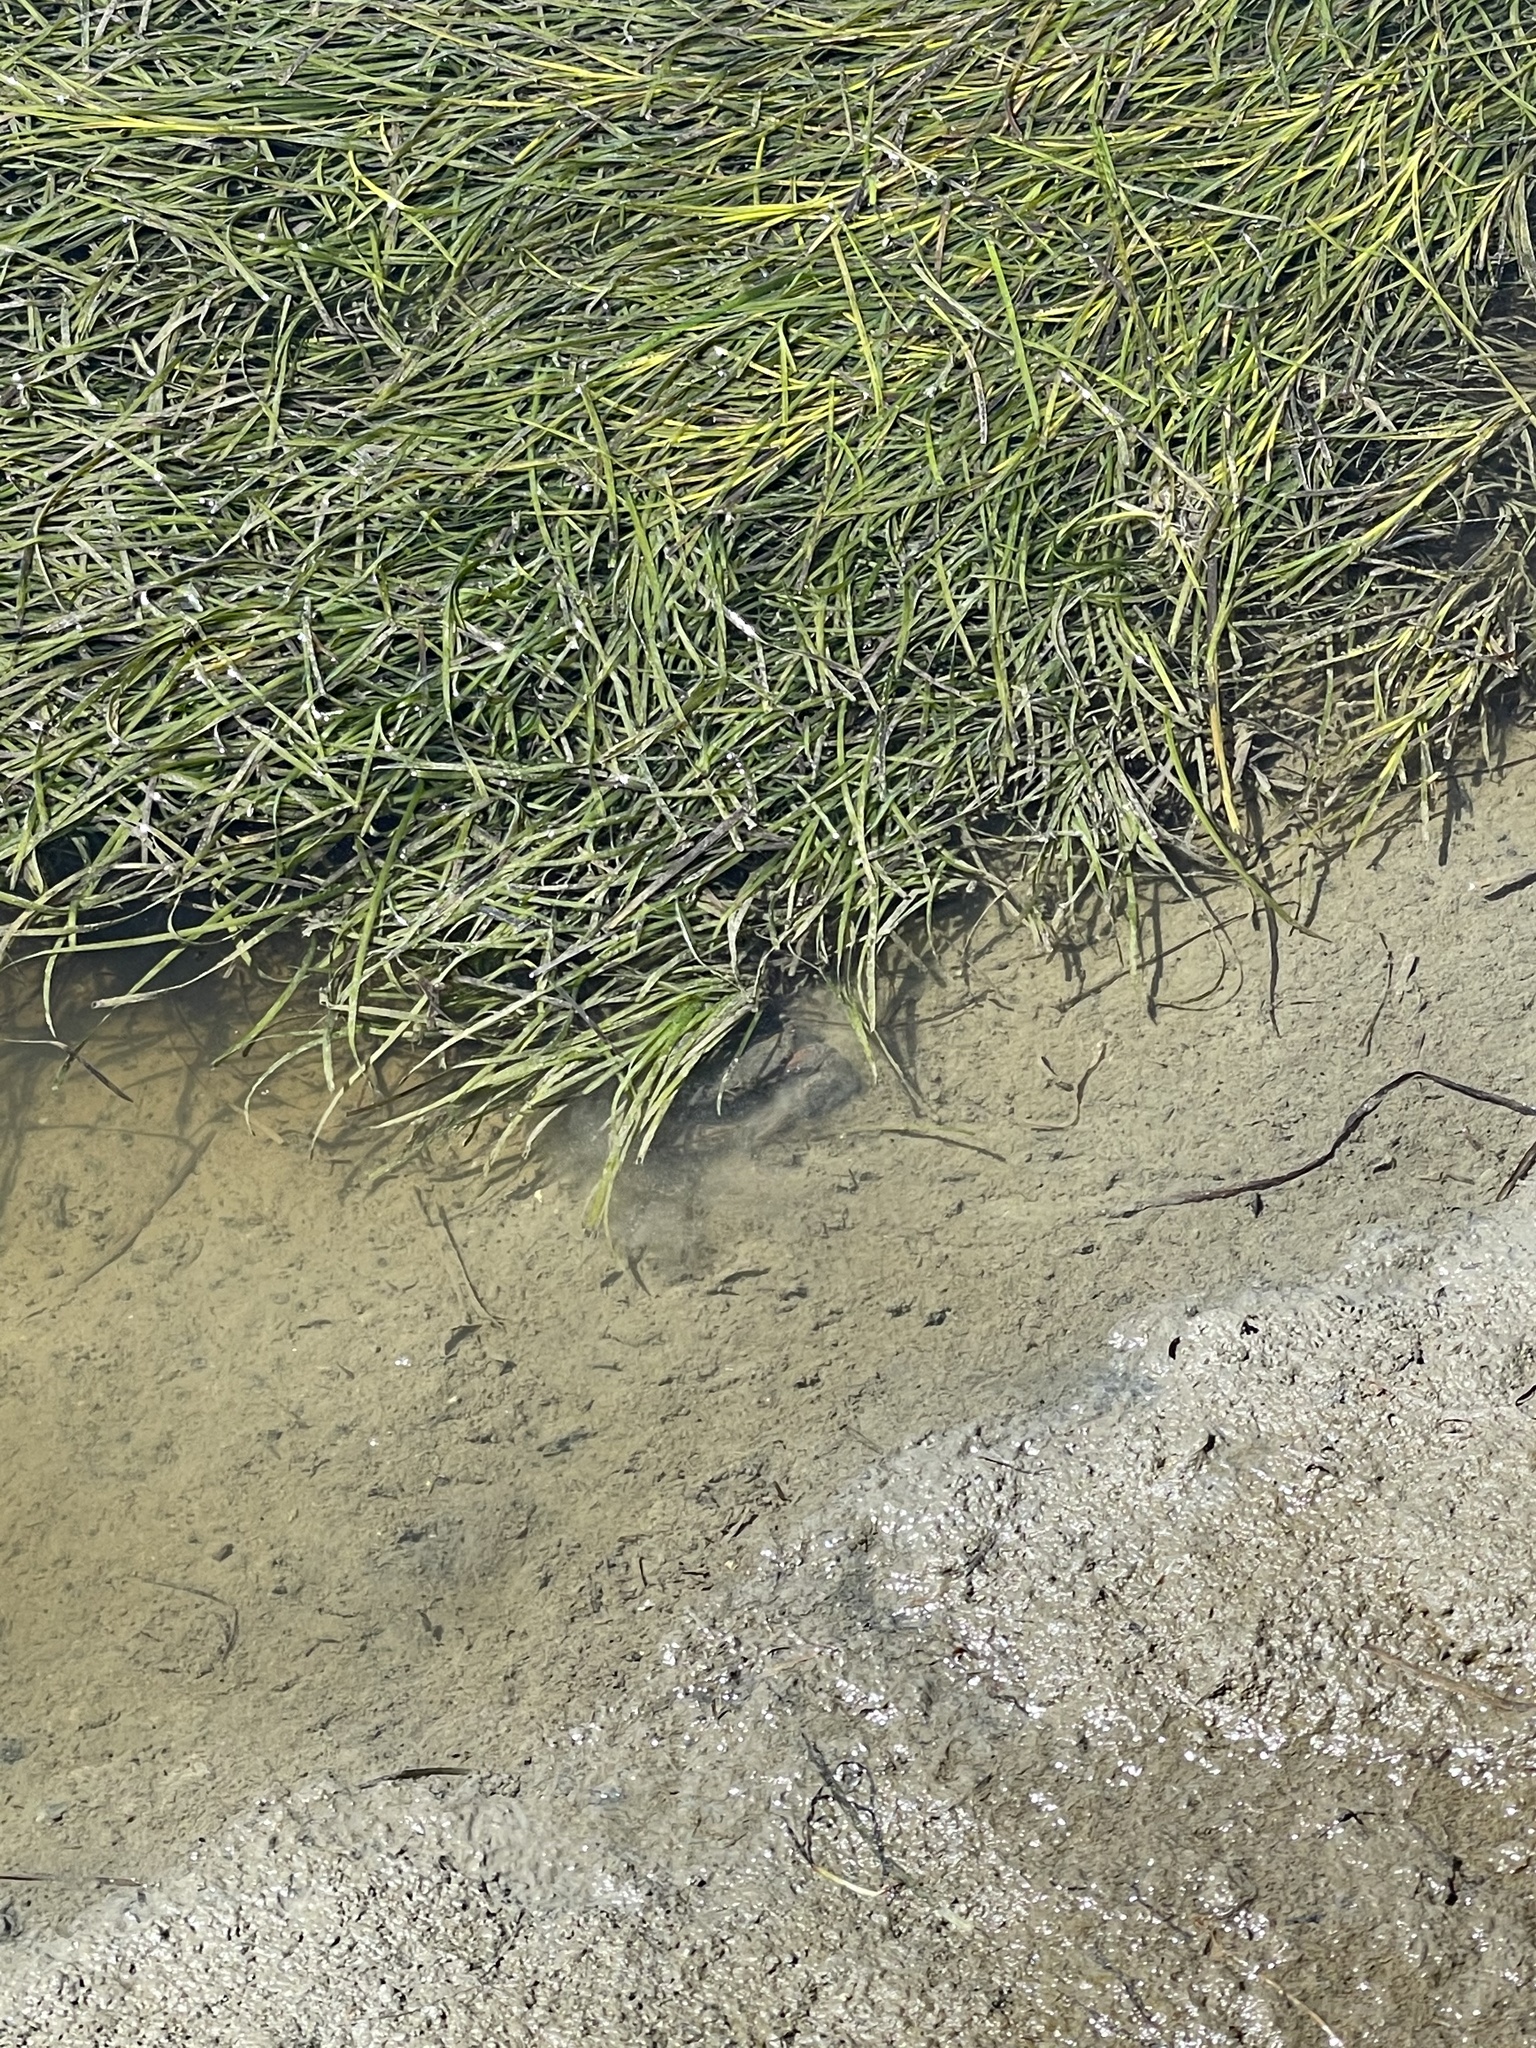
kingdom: Plantae
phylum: Tracheophyta
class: Liliopsida
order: Alismatales
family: Zosteraceae
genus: Zostera
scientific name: Zostera marina
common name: Eelgrass
